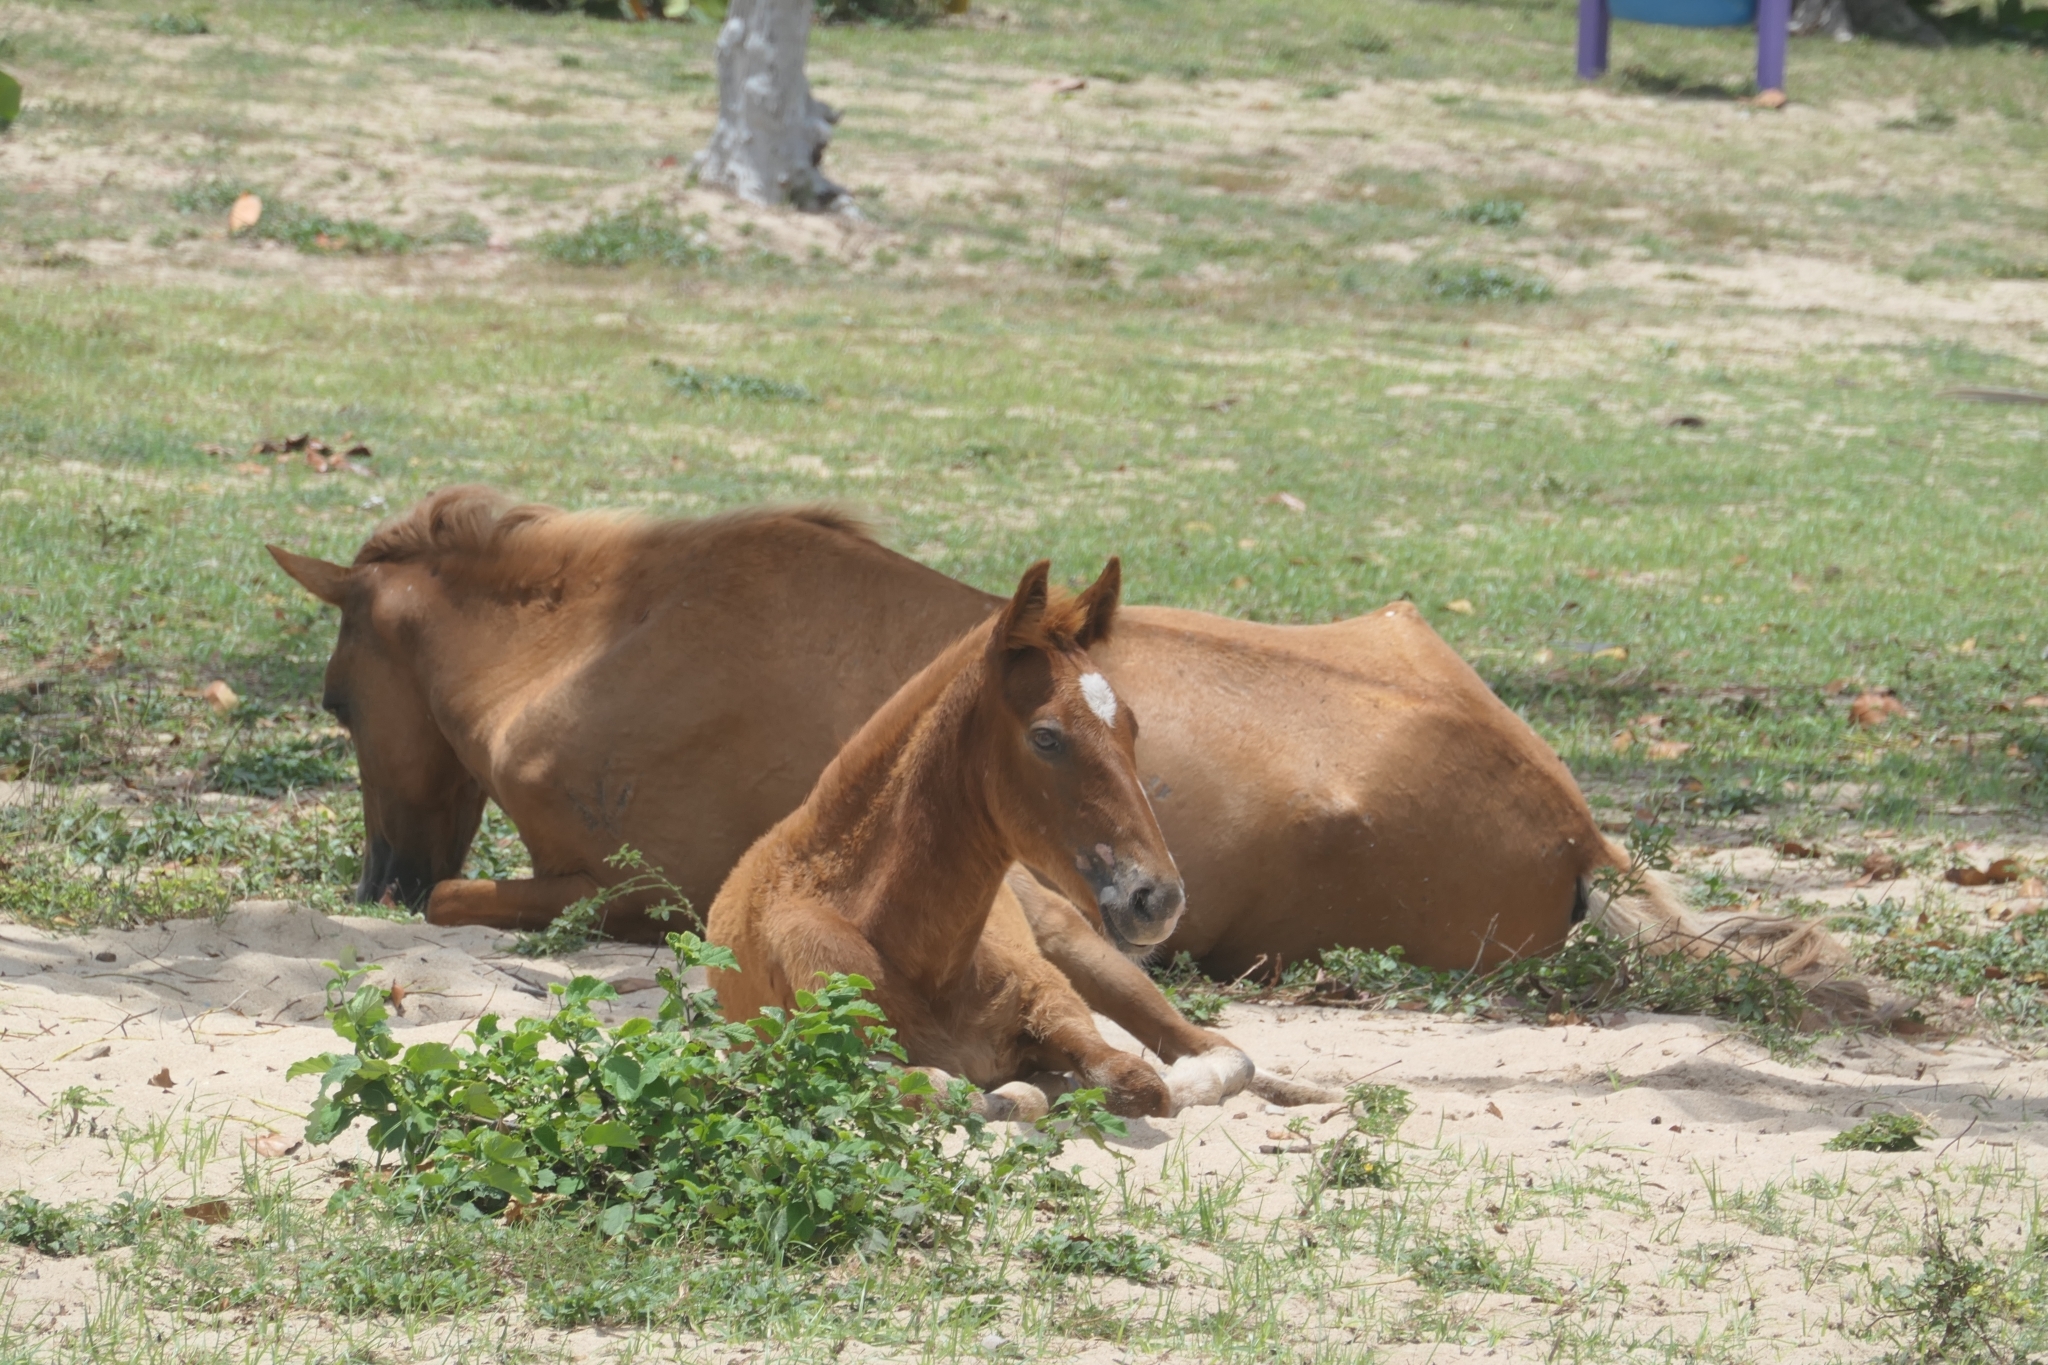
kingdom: Animalia
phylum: Chordata
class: Mammalia
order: Perissodactyla
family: Equidae
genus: Equus
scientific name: Equus caballus
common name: Horse
